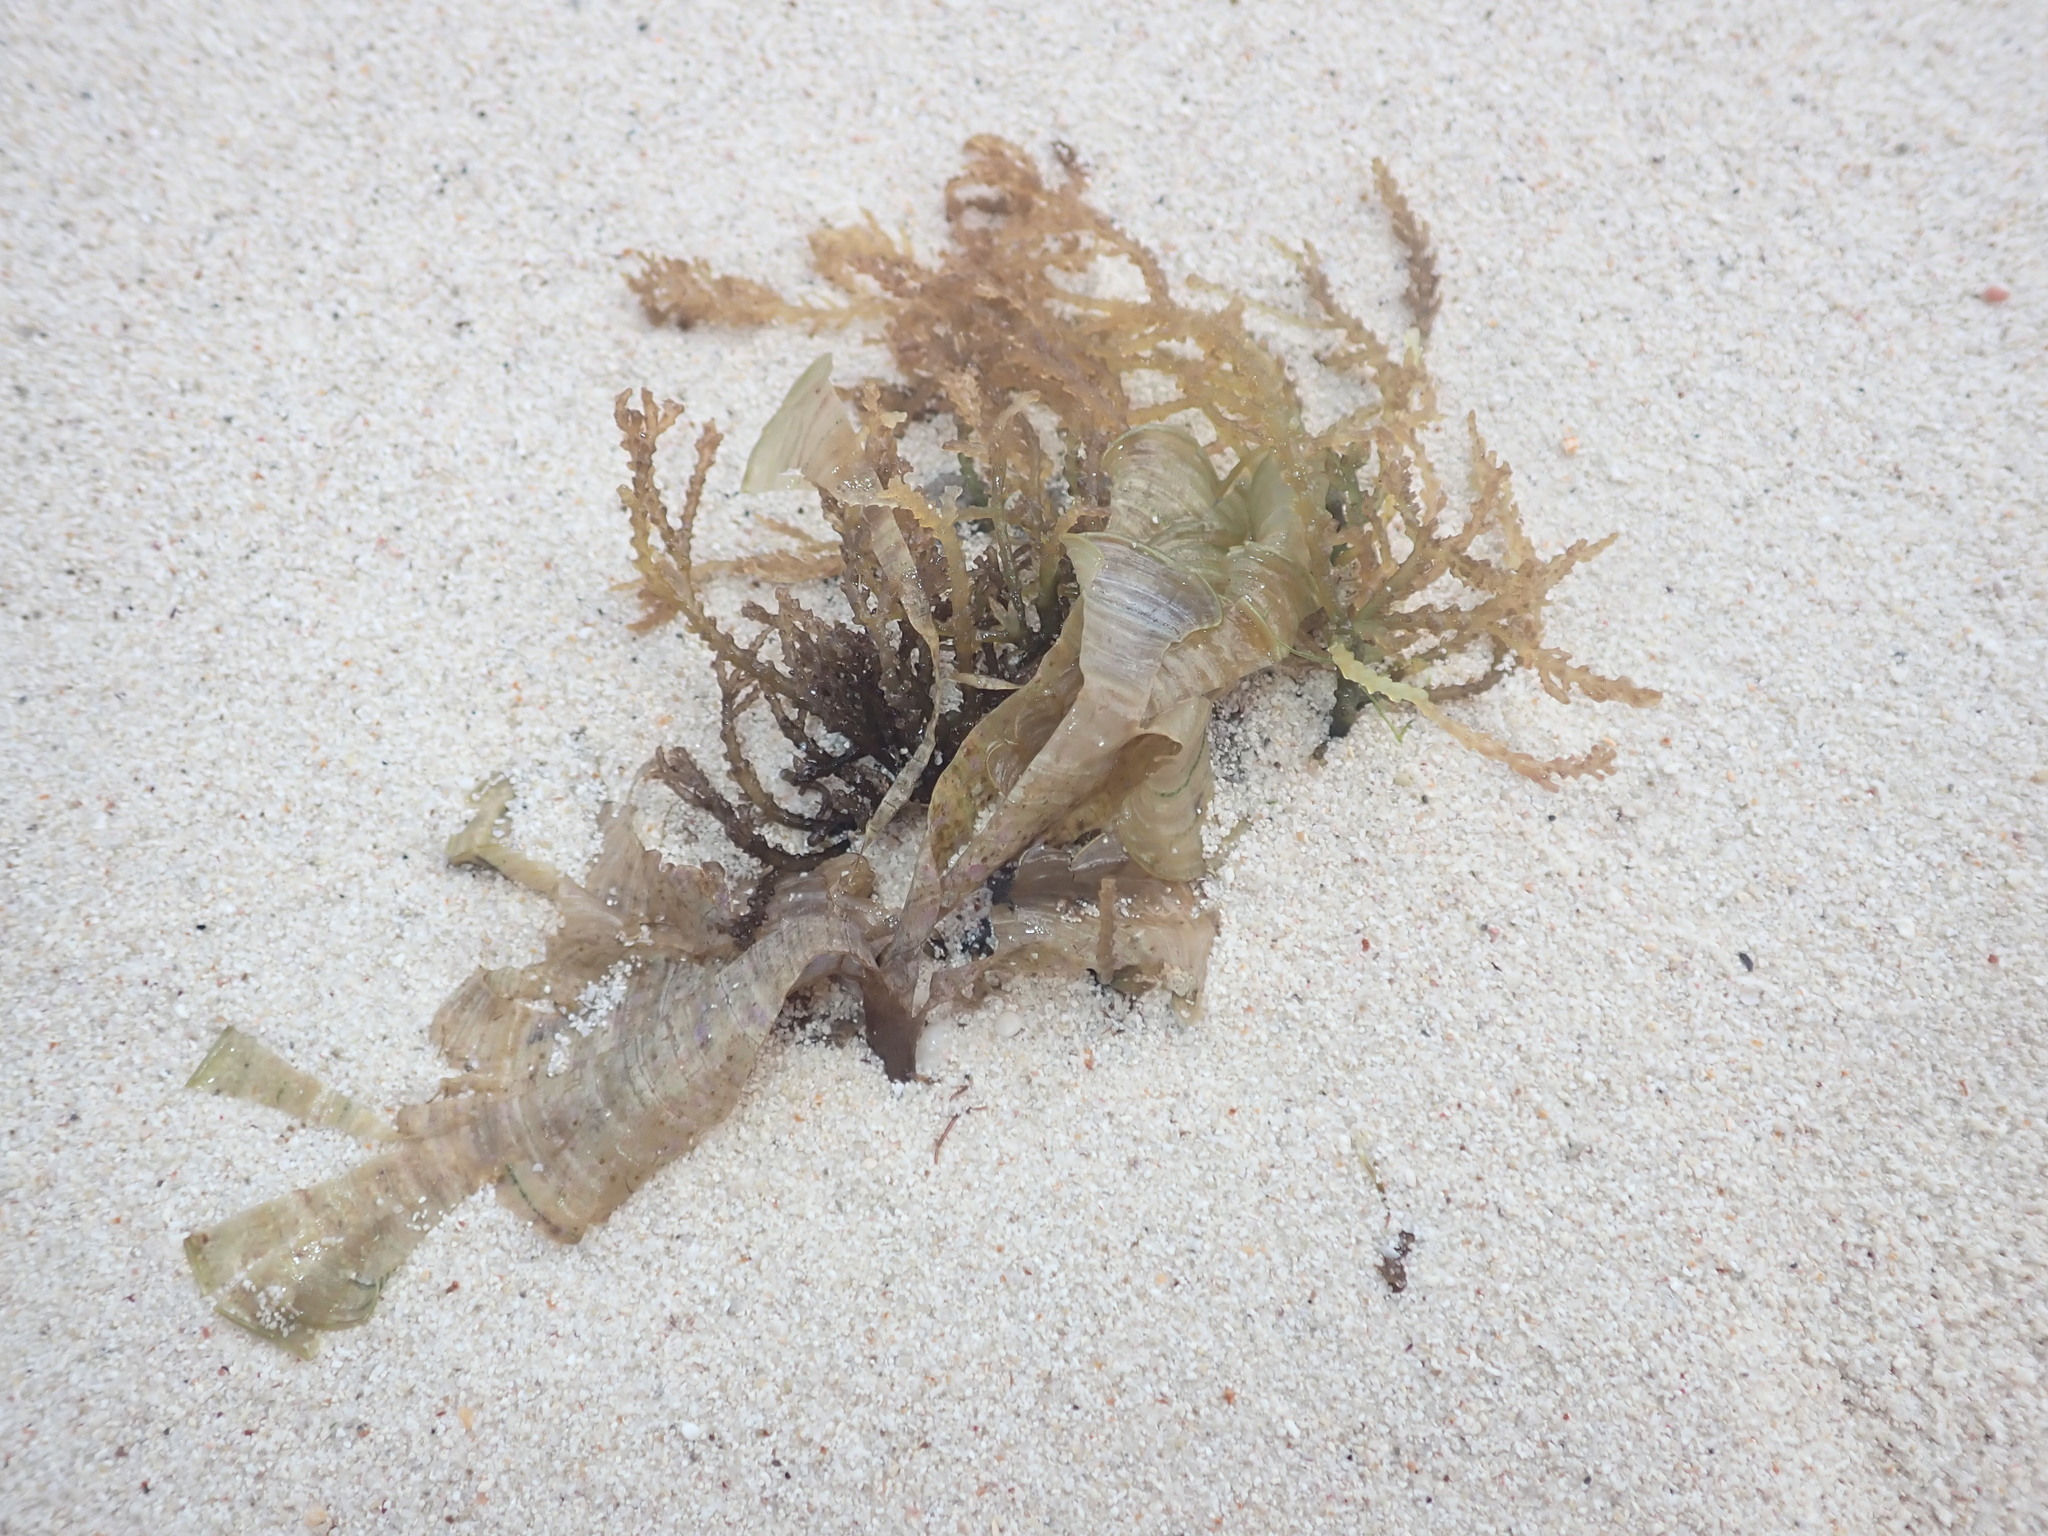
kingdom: Plantae
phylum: Rhodophyta
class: Florideophyceae
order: Ceramiales
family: Rhodomelaceae
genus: Acanthophora
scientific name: Acanthophora spicifera
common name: Red algae
